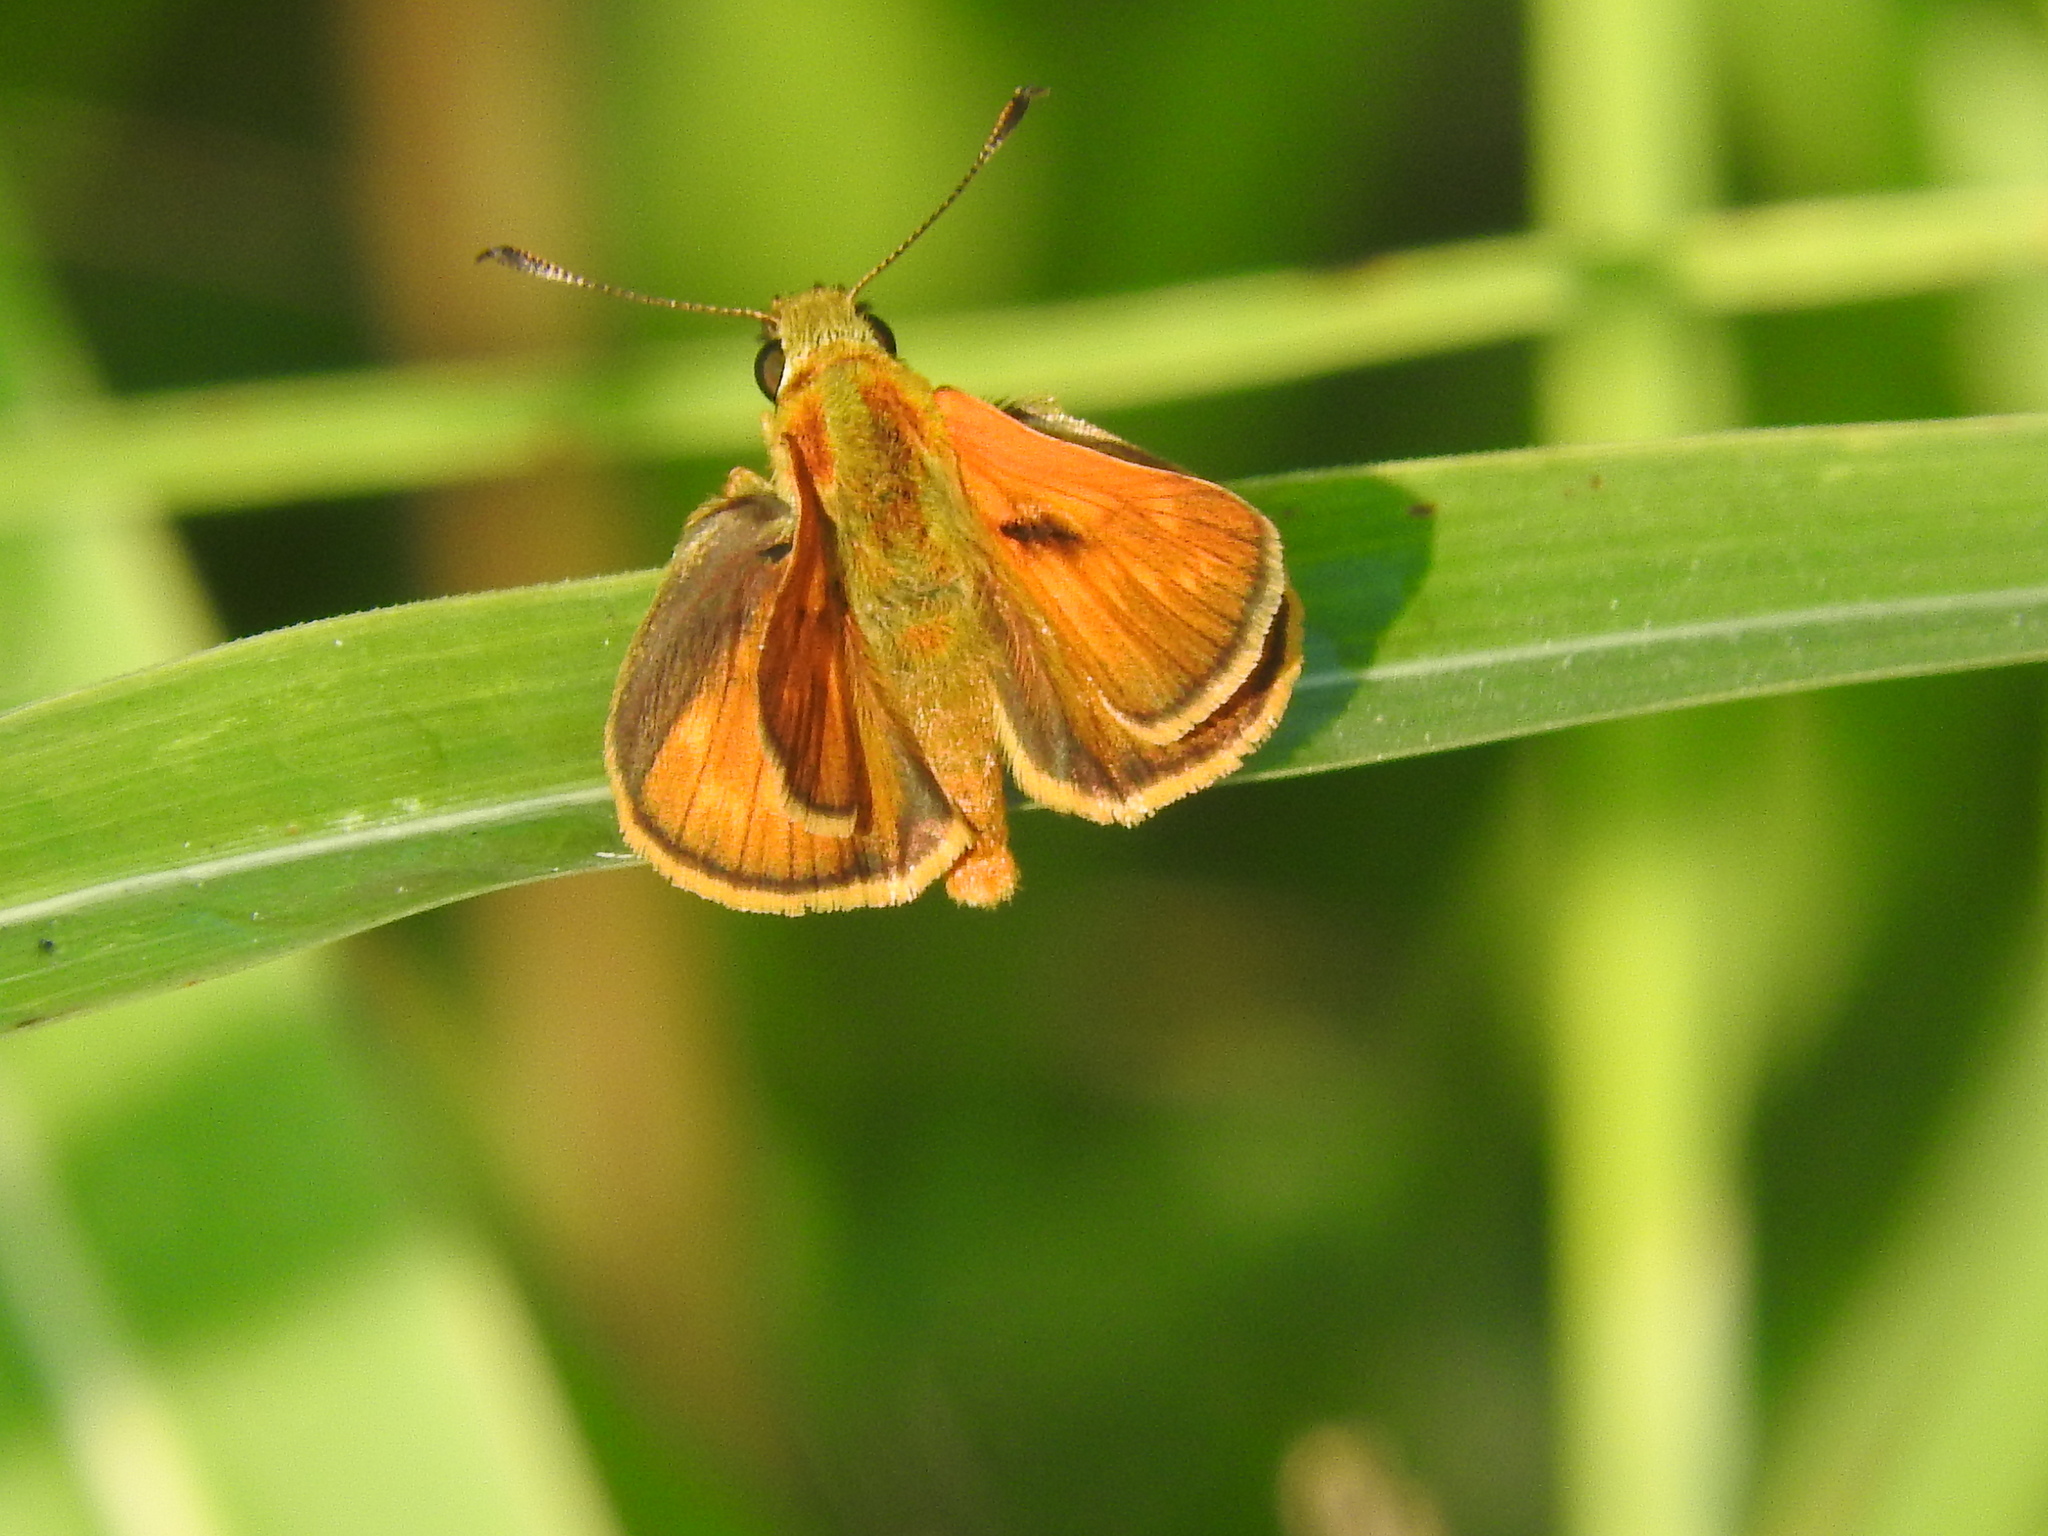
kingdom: Animalia
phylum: Arthropoda
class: Insecta
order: Lepidoptera
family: Hesperiidae
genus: Ochlodes
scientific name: Ochlodes venata
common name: Large skipper
